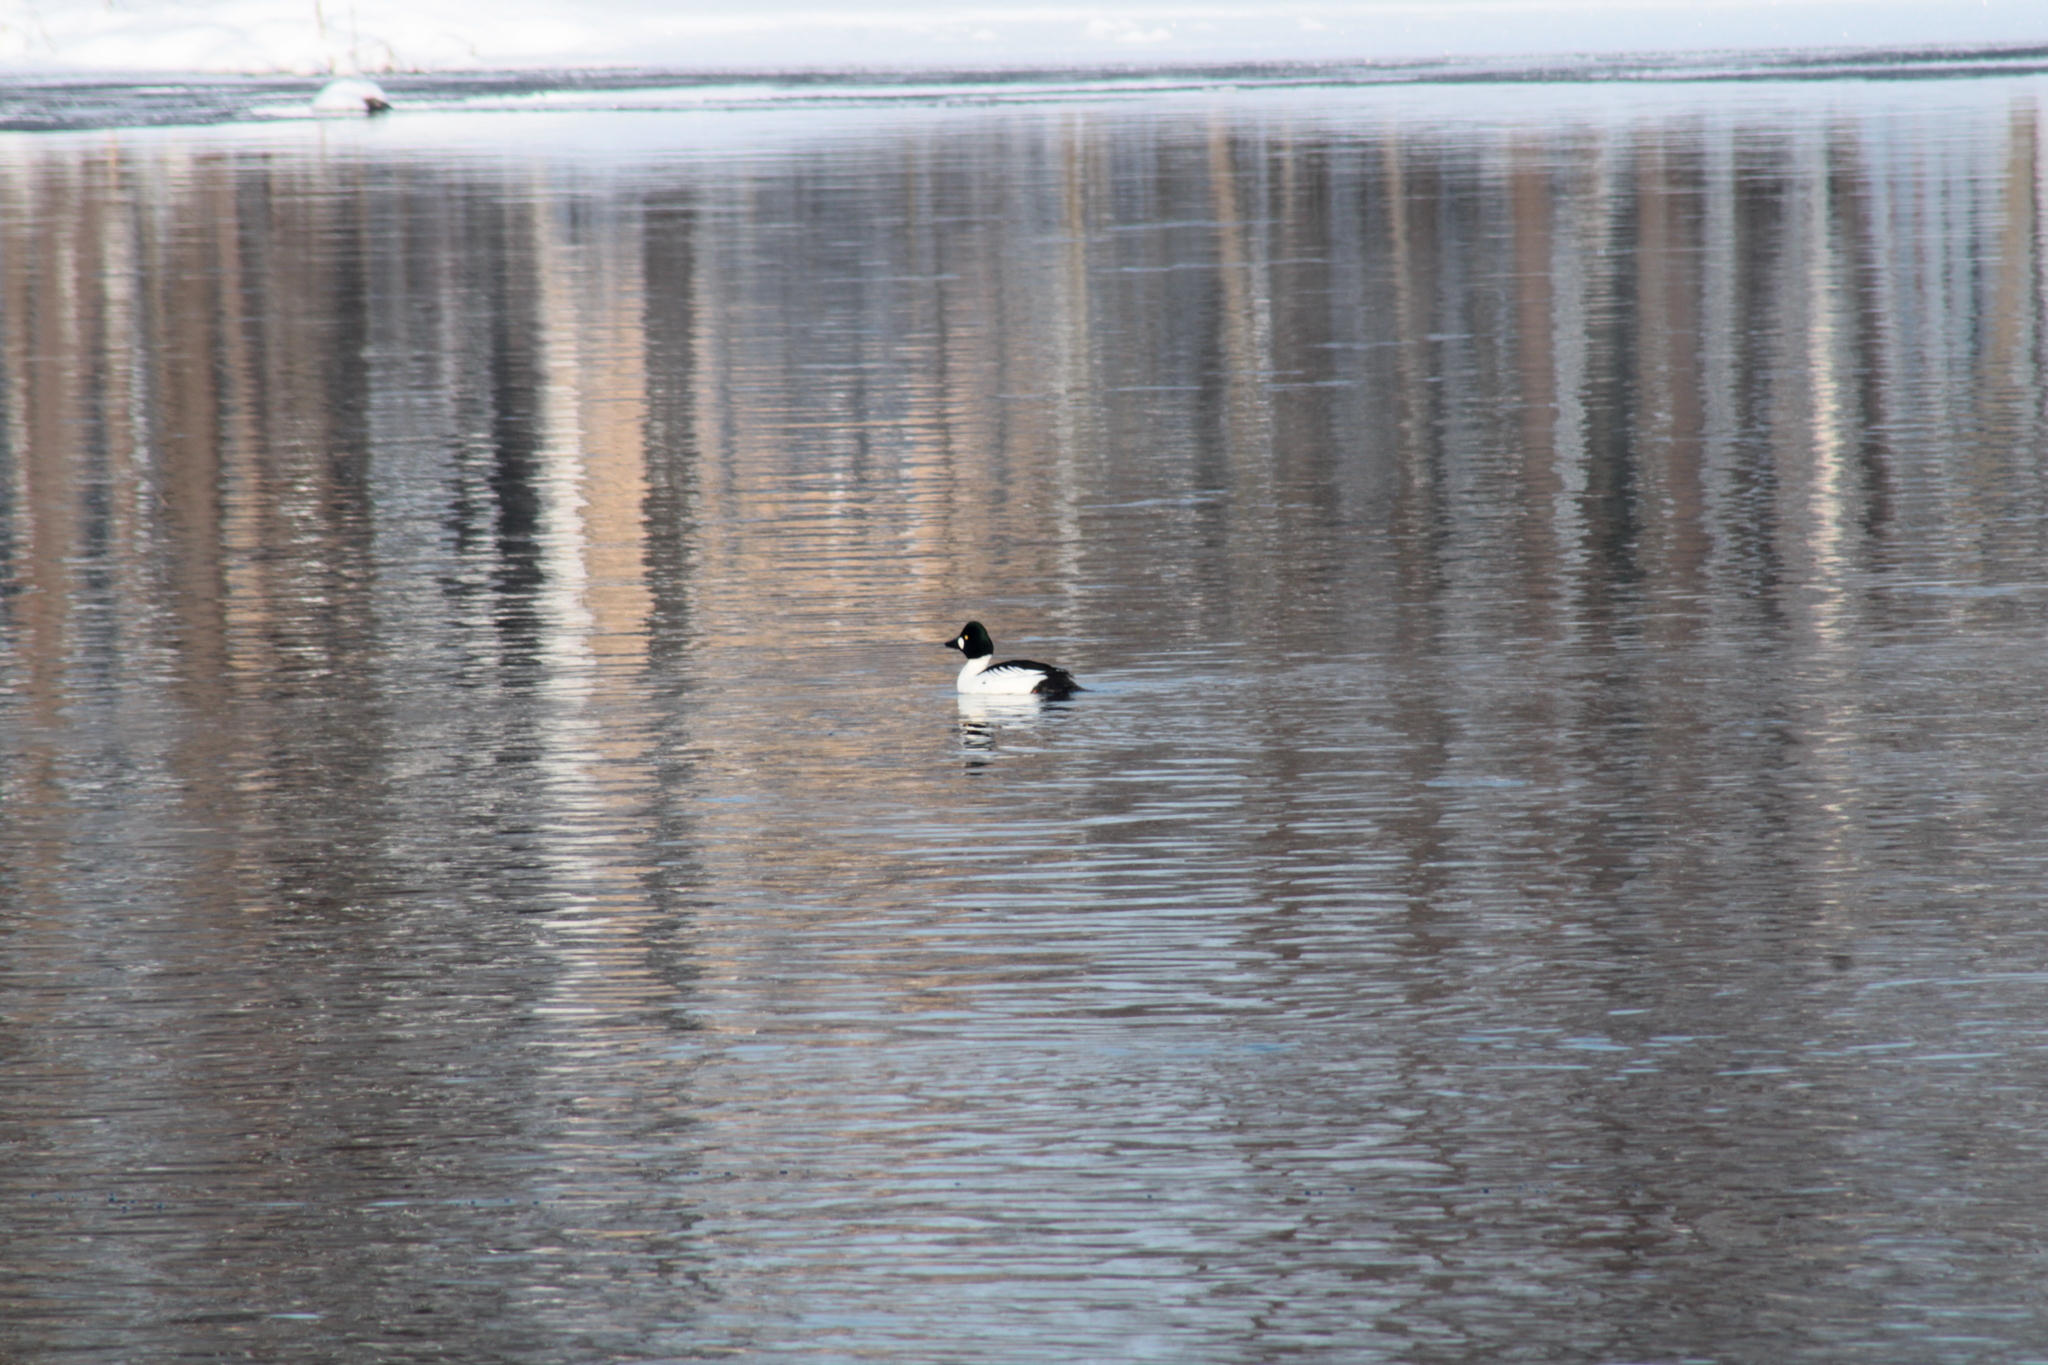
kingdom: Animalia
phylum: Chordata
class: Aves
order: Anseriformes
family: Anatidae
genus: Bucephala
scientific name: Bucephala clangula
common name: Common goldeneye
